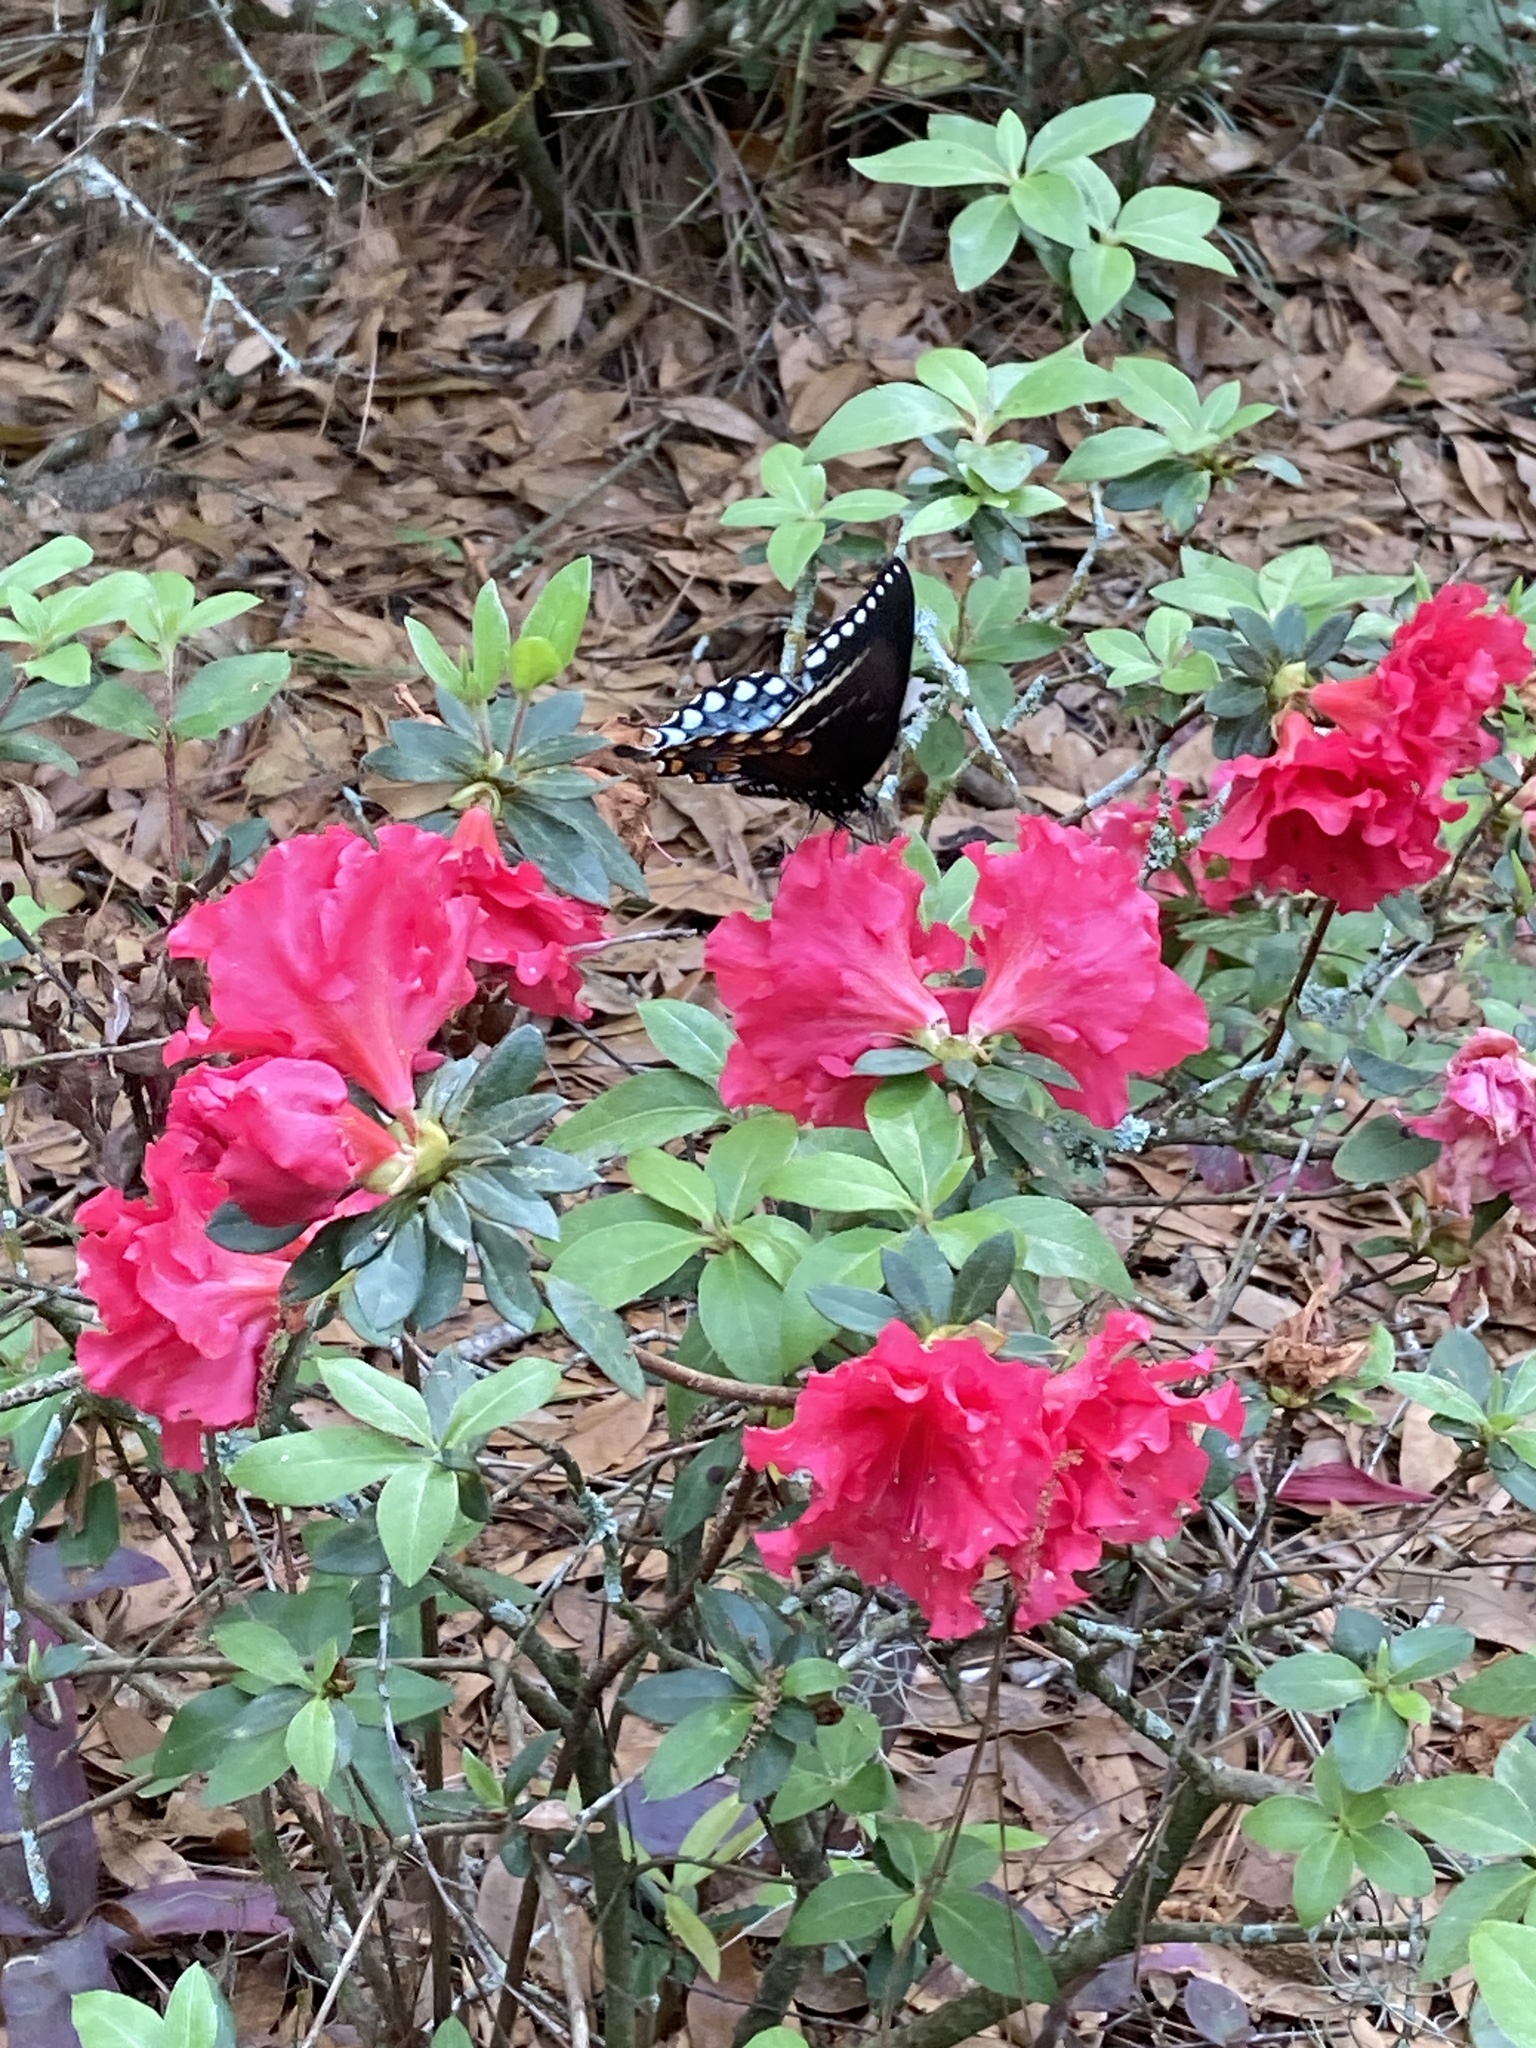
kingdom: Animalia
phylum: Arthropoda
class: Insecta
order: Lepidoptera
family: Papilionidae
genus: Papilio
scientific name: Papilio troilus
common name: Spicebush swallowtail
